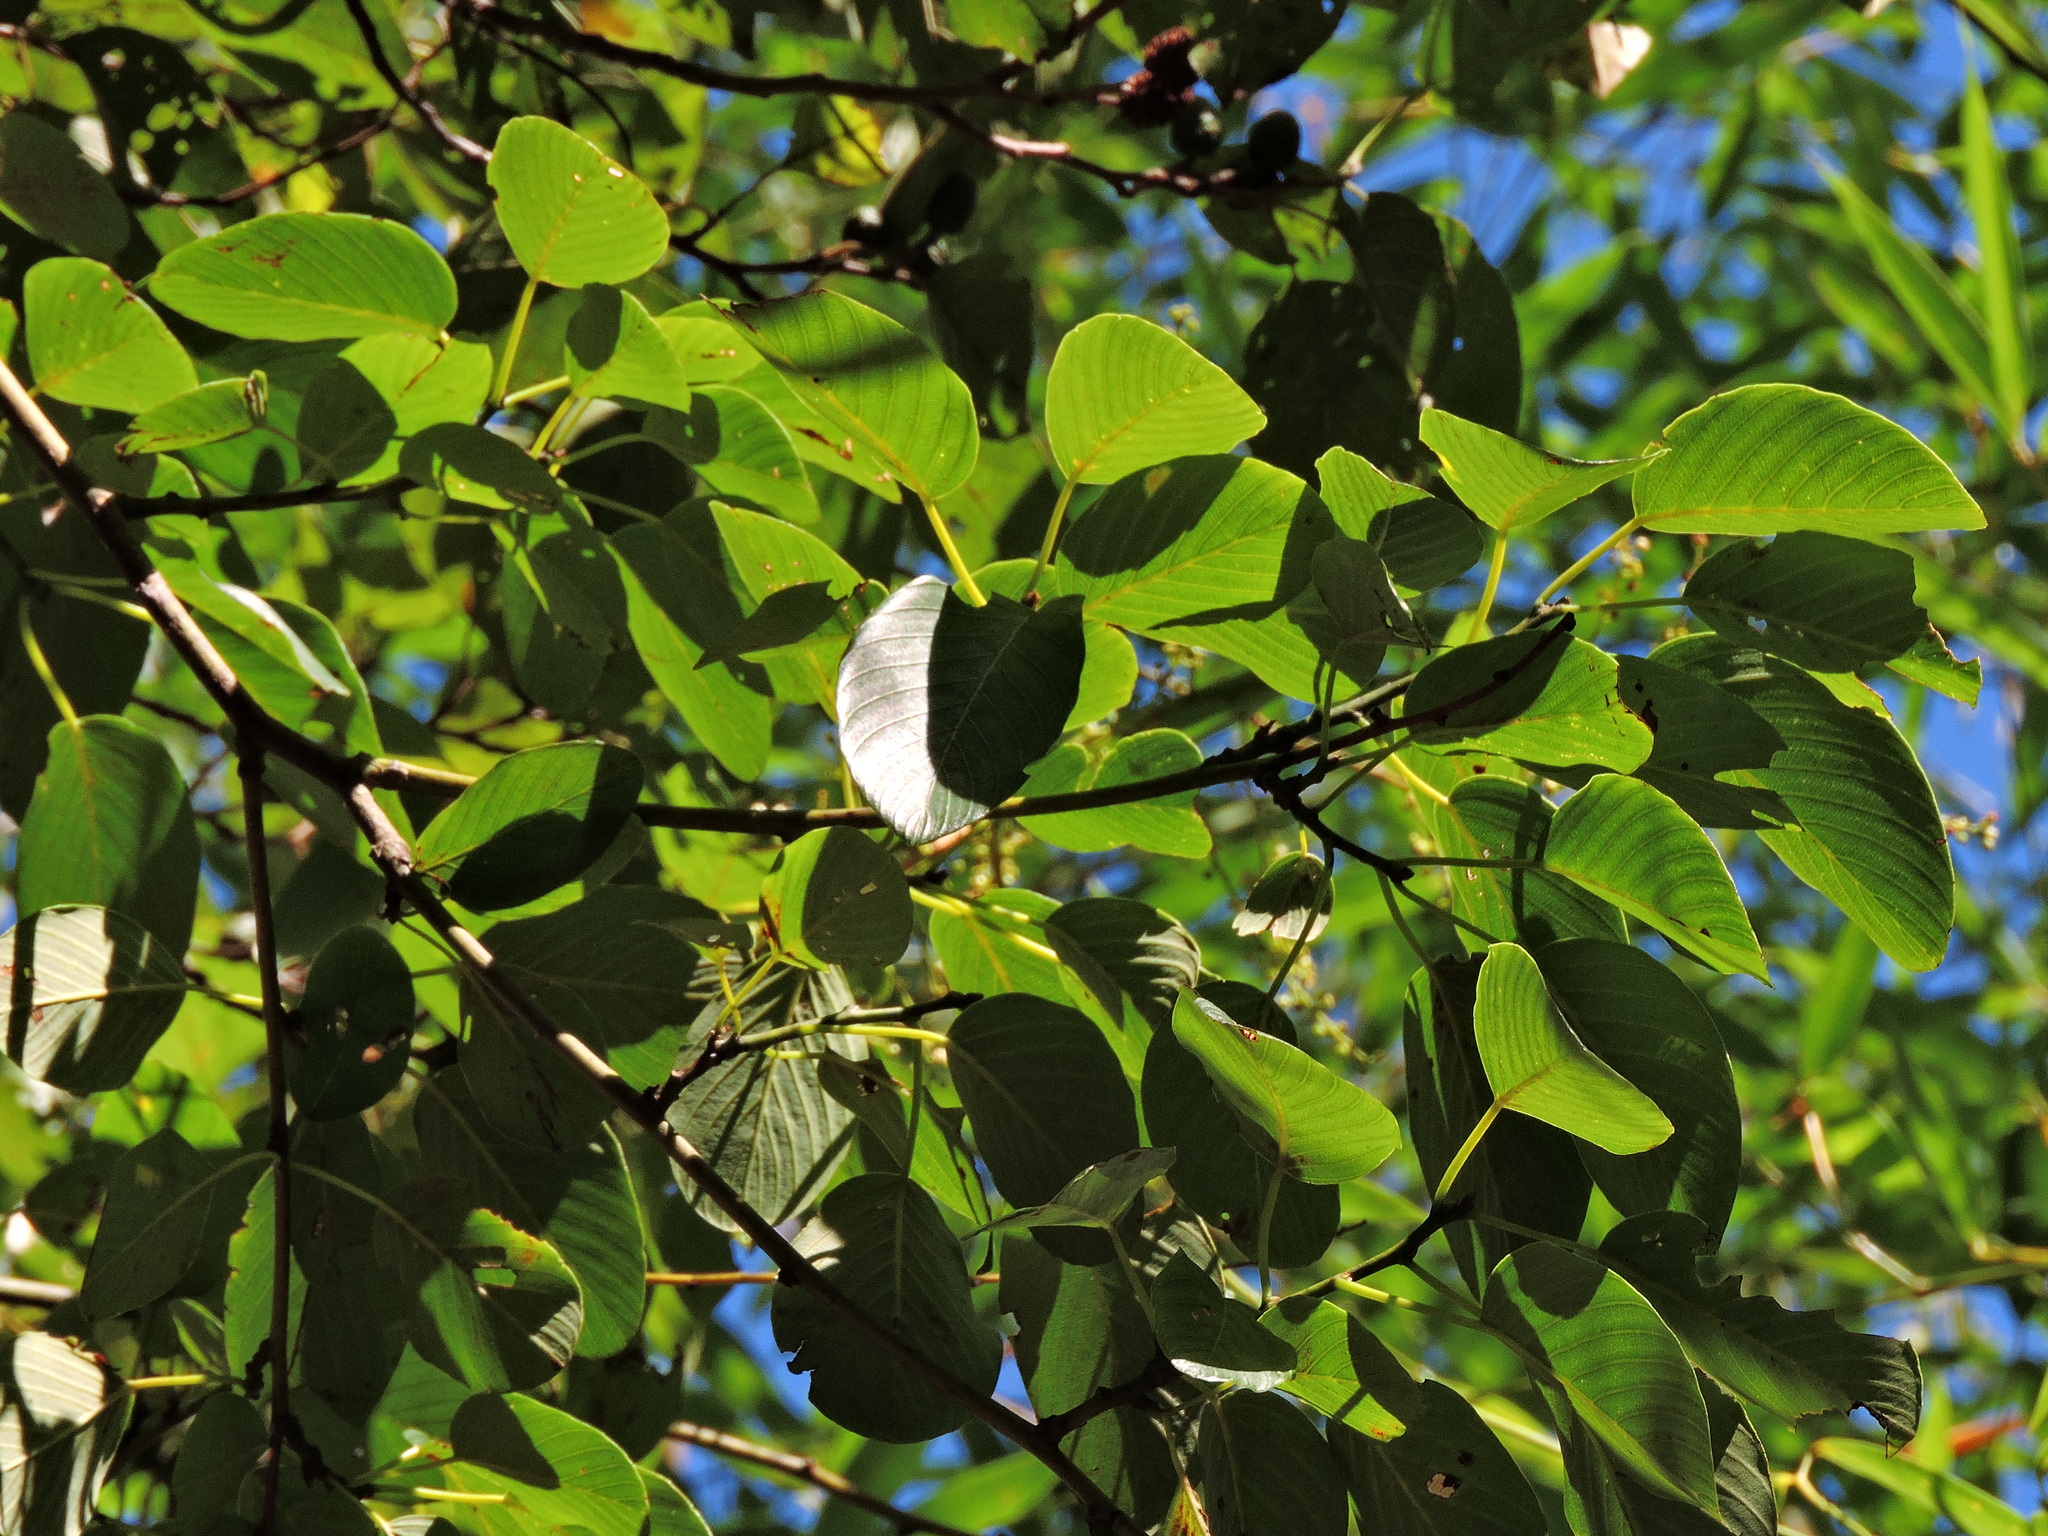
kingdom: Plantae
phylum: Tracheophyta
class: Magnoliopsida
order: Rosales
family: Rhamnaceae
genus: Berchemia
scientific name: Berchemia floribunda
